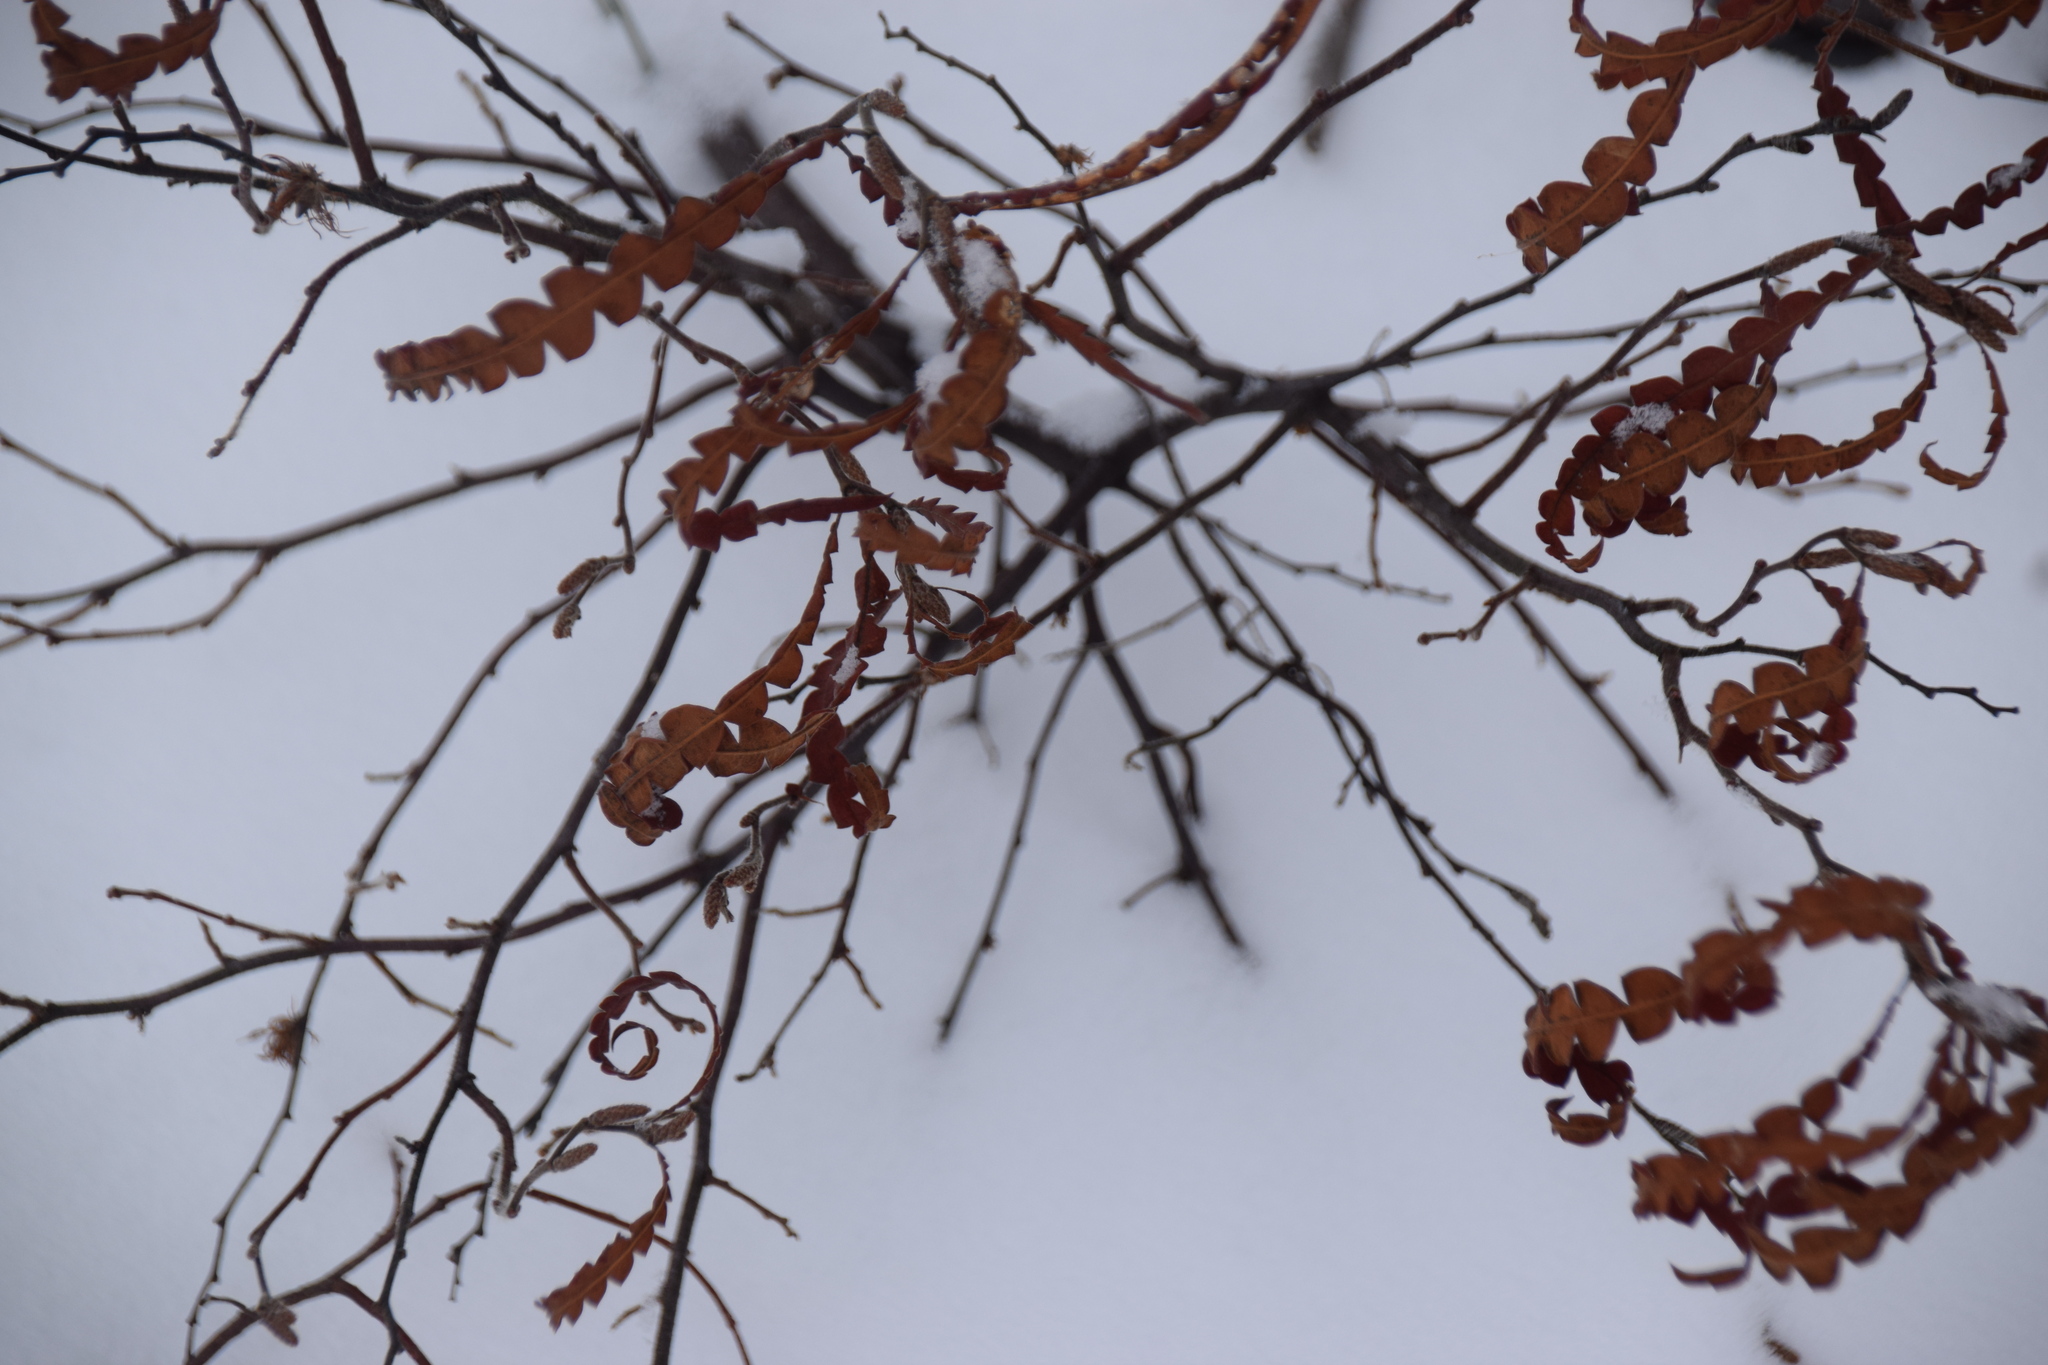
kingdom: Plantae
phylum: Tracheophyta
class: Magnoliopsida
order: Fagales
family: Myricaceae
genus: Comptonia
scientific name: Comptonia peregrina
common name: Sweet-fern
